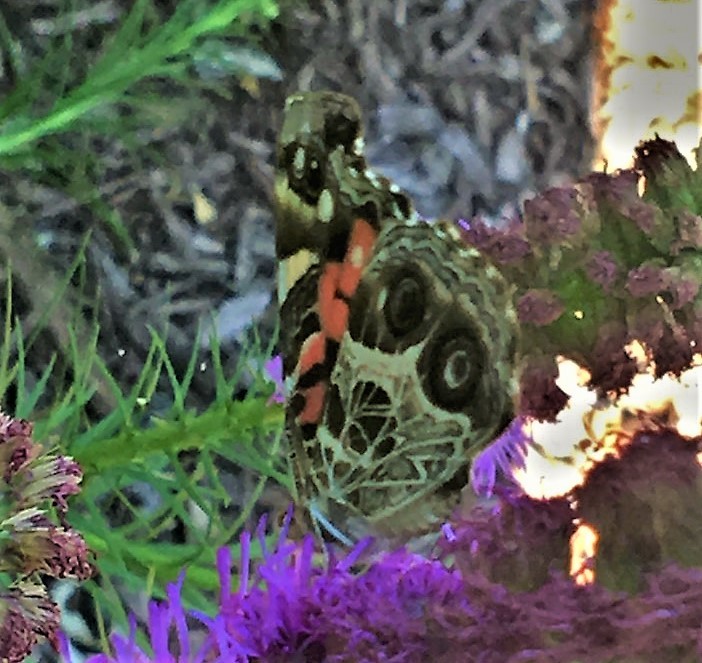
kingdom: Animalia
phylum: Arthropoda
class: Insecta
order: Lepidoptera
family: Nymphalidae
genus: Vanessa
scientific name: Vanessa virginiensis
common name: American lady
